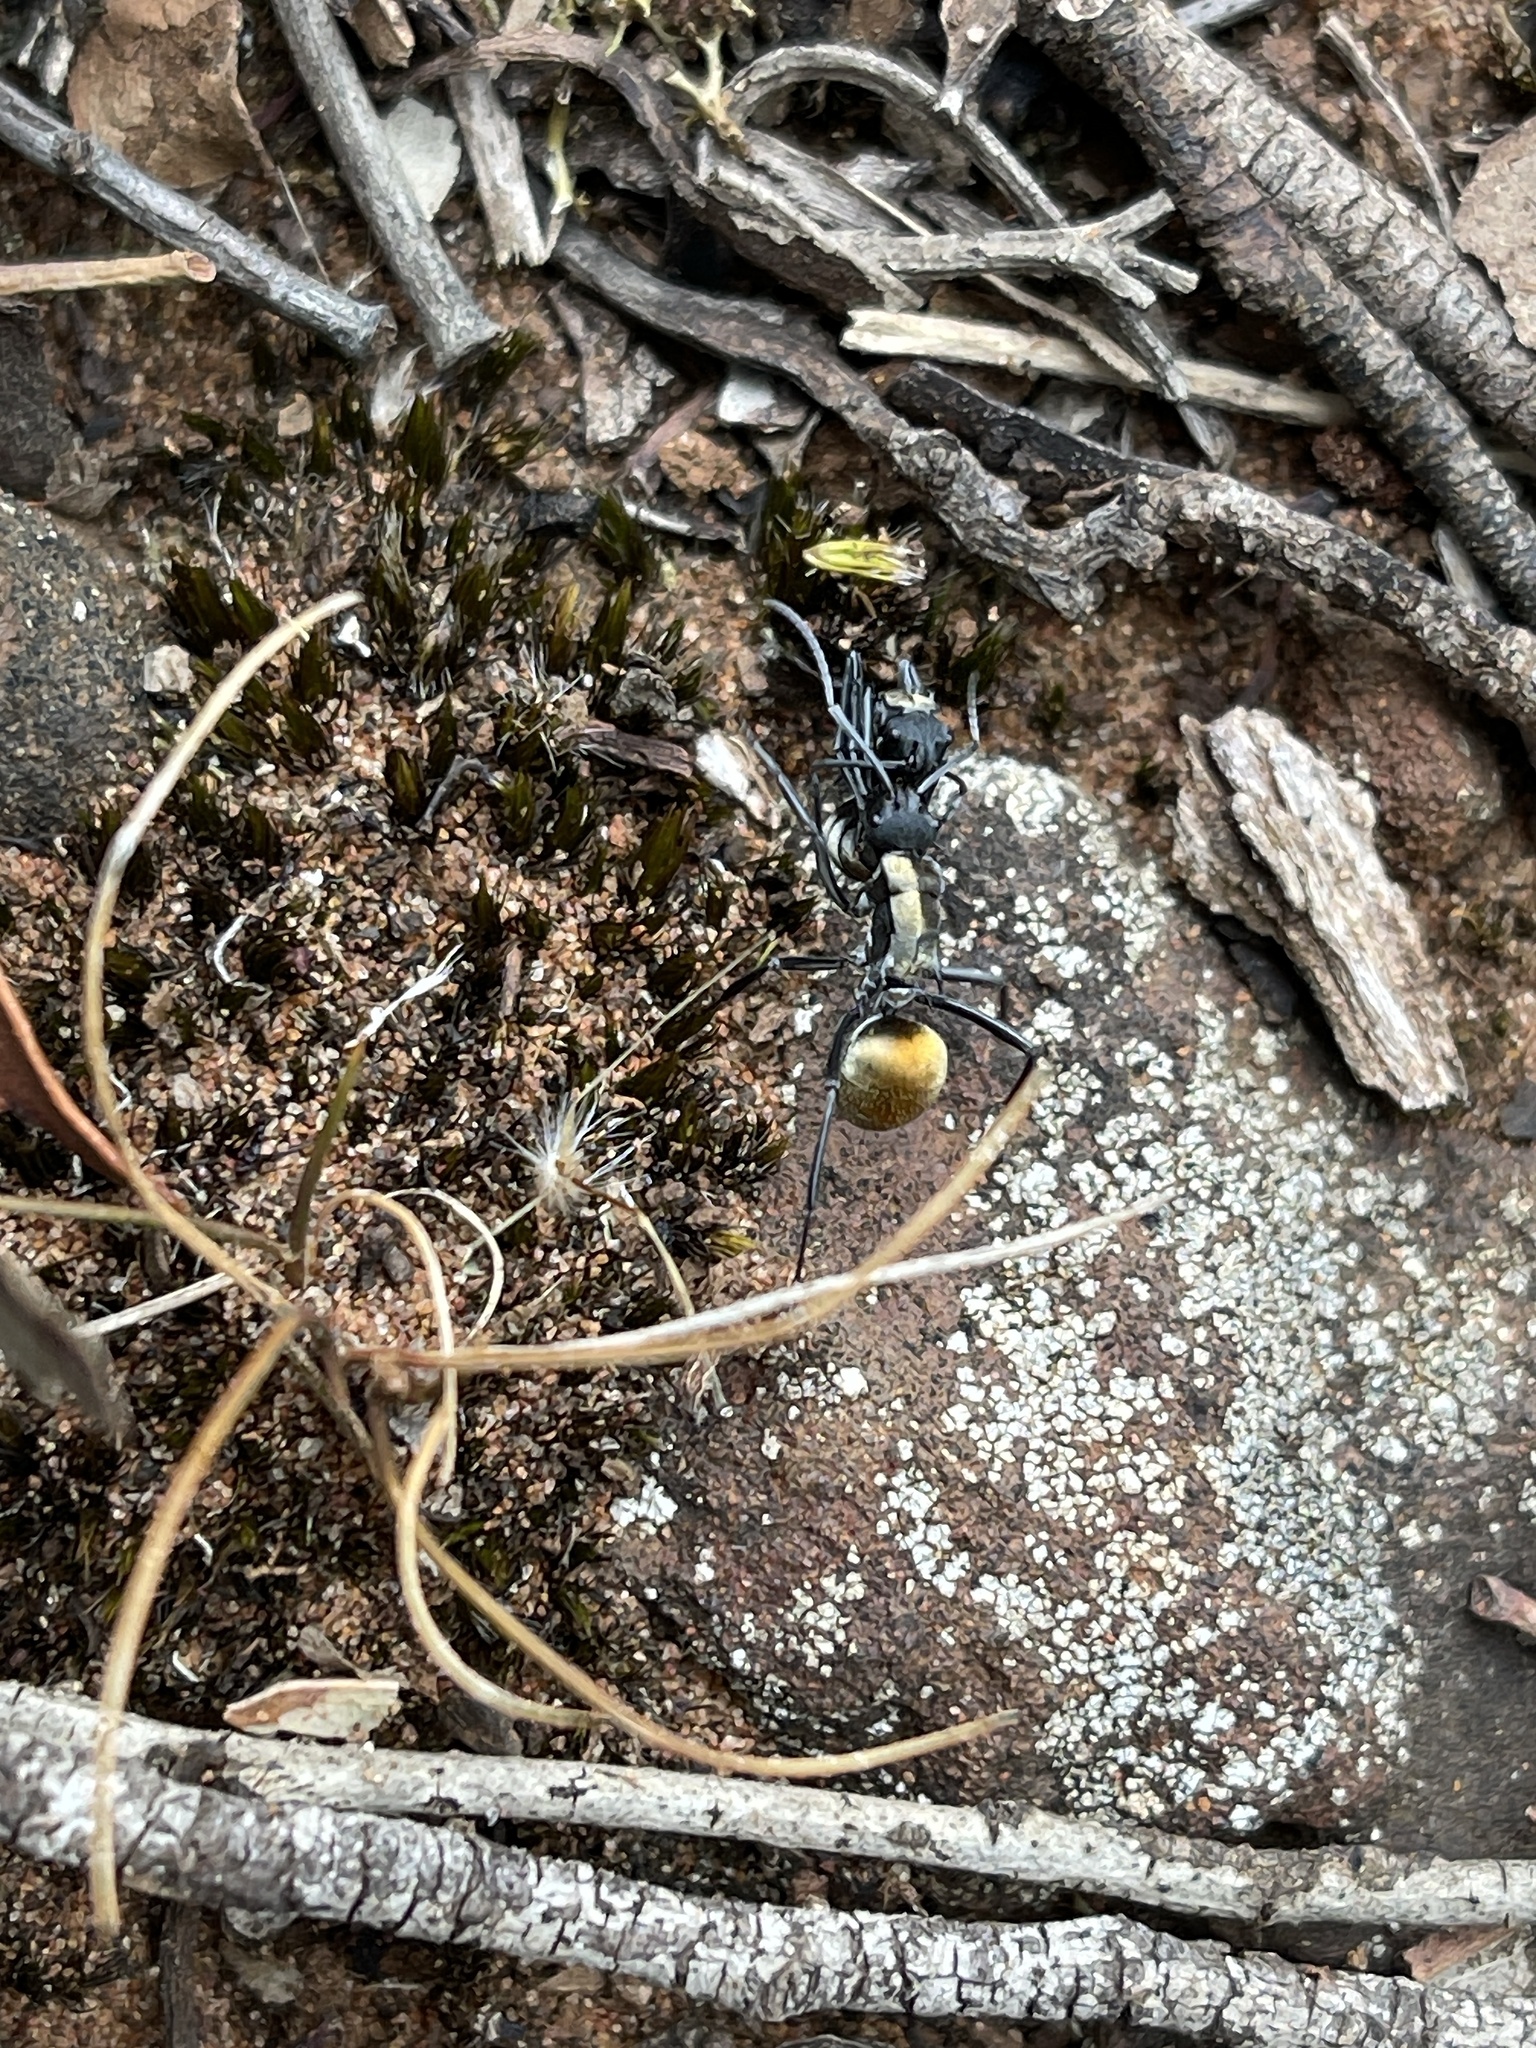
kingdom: Animalia
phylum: Arthropoda
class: Insecta
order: Hymenoptera
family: Formicidae
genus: Polyrhachis
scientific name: Polyrhachis ammon
